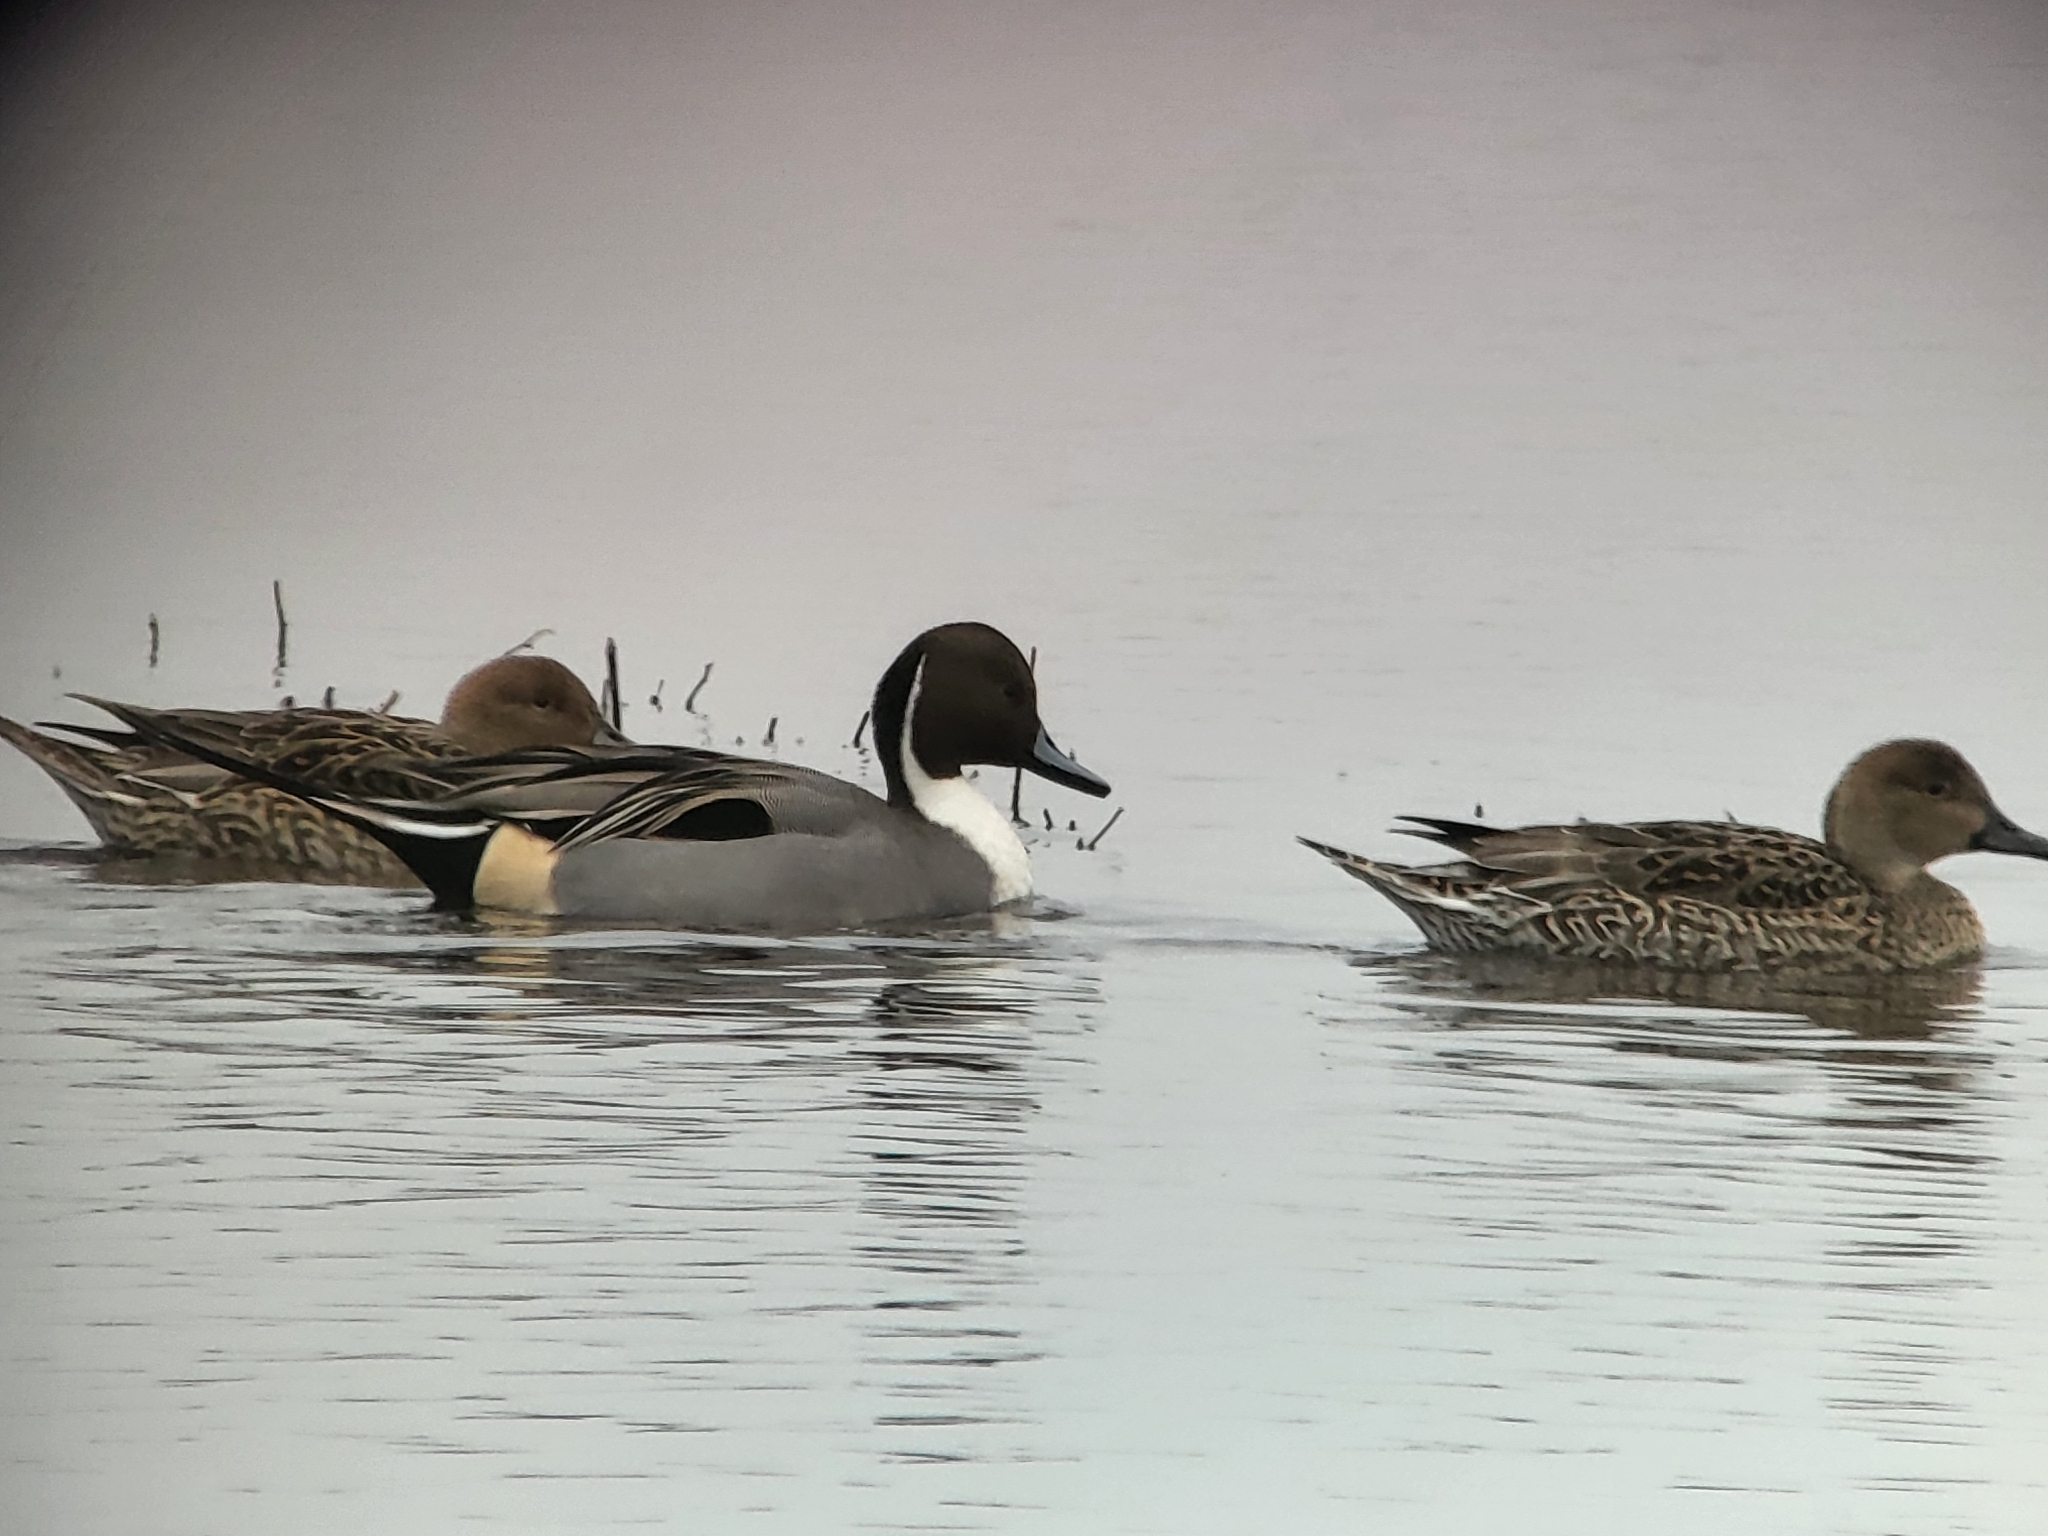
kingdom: Animalia
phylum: Chordata
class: Aves
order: Anseriformes
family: Anatidae
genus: Anas
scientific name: Anas acuta
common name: Northern pintail
